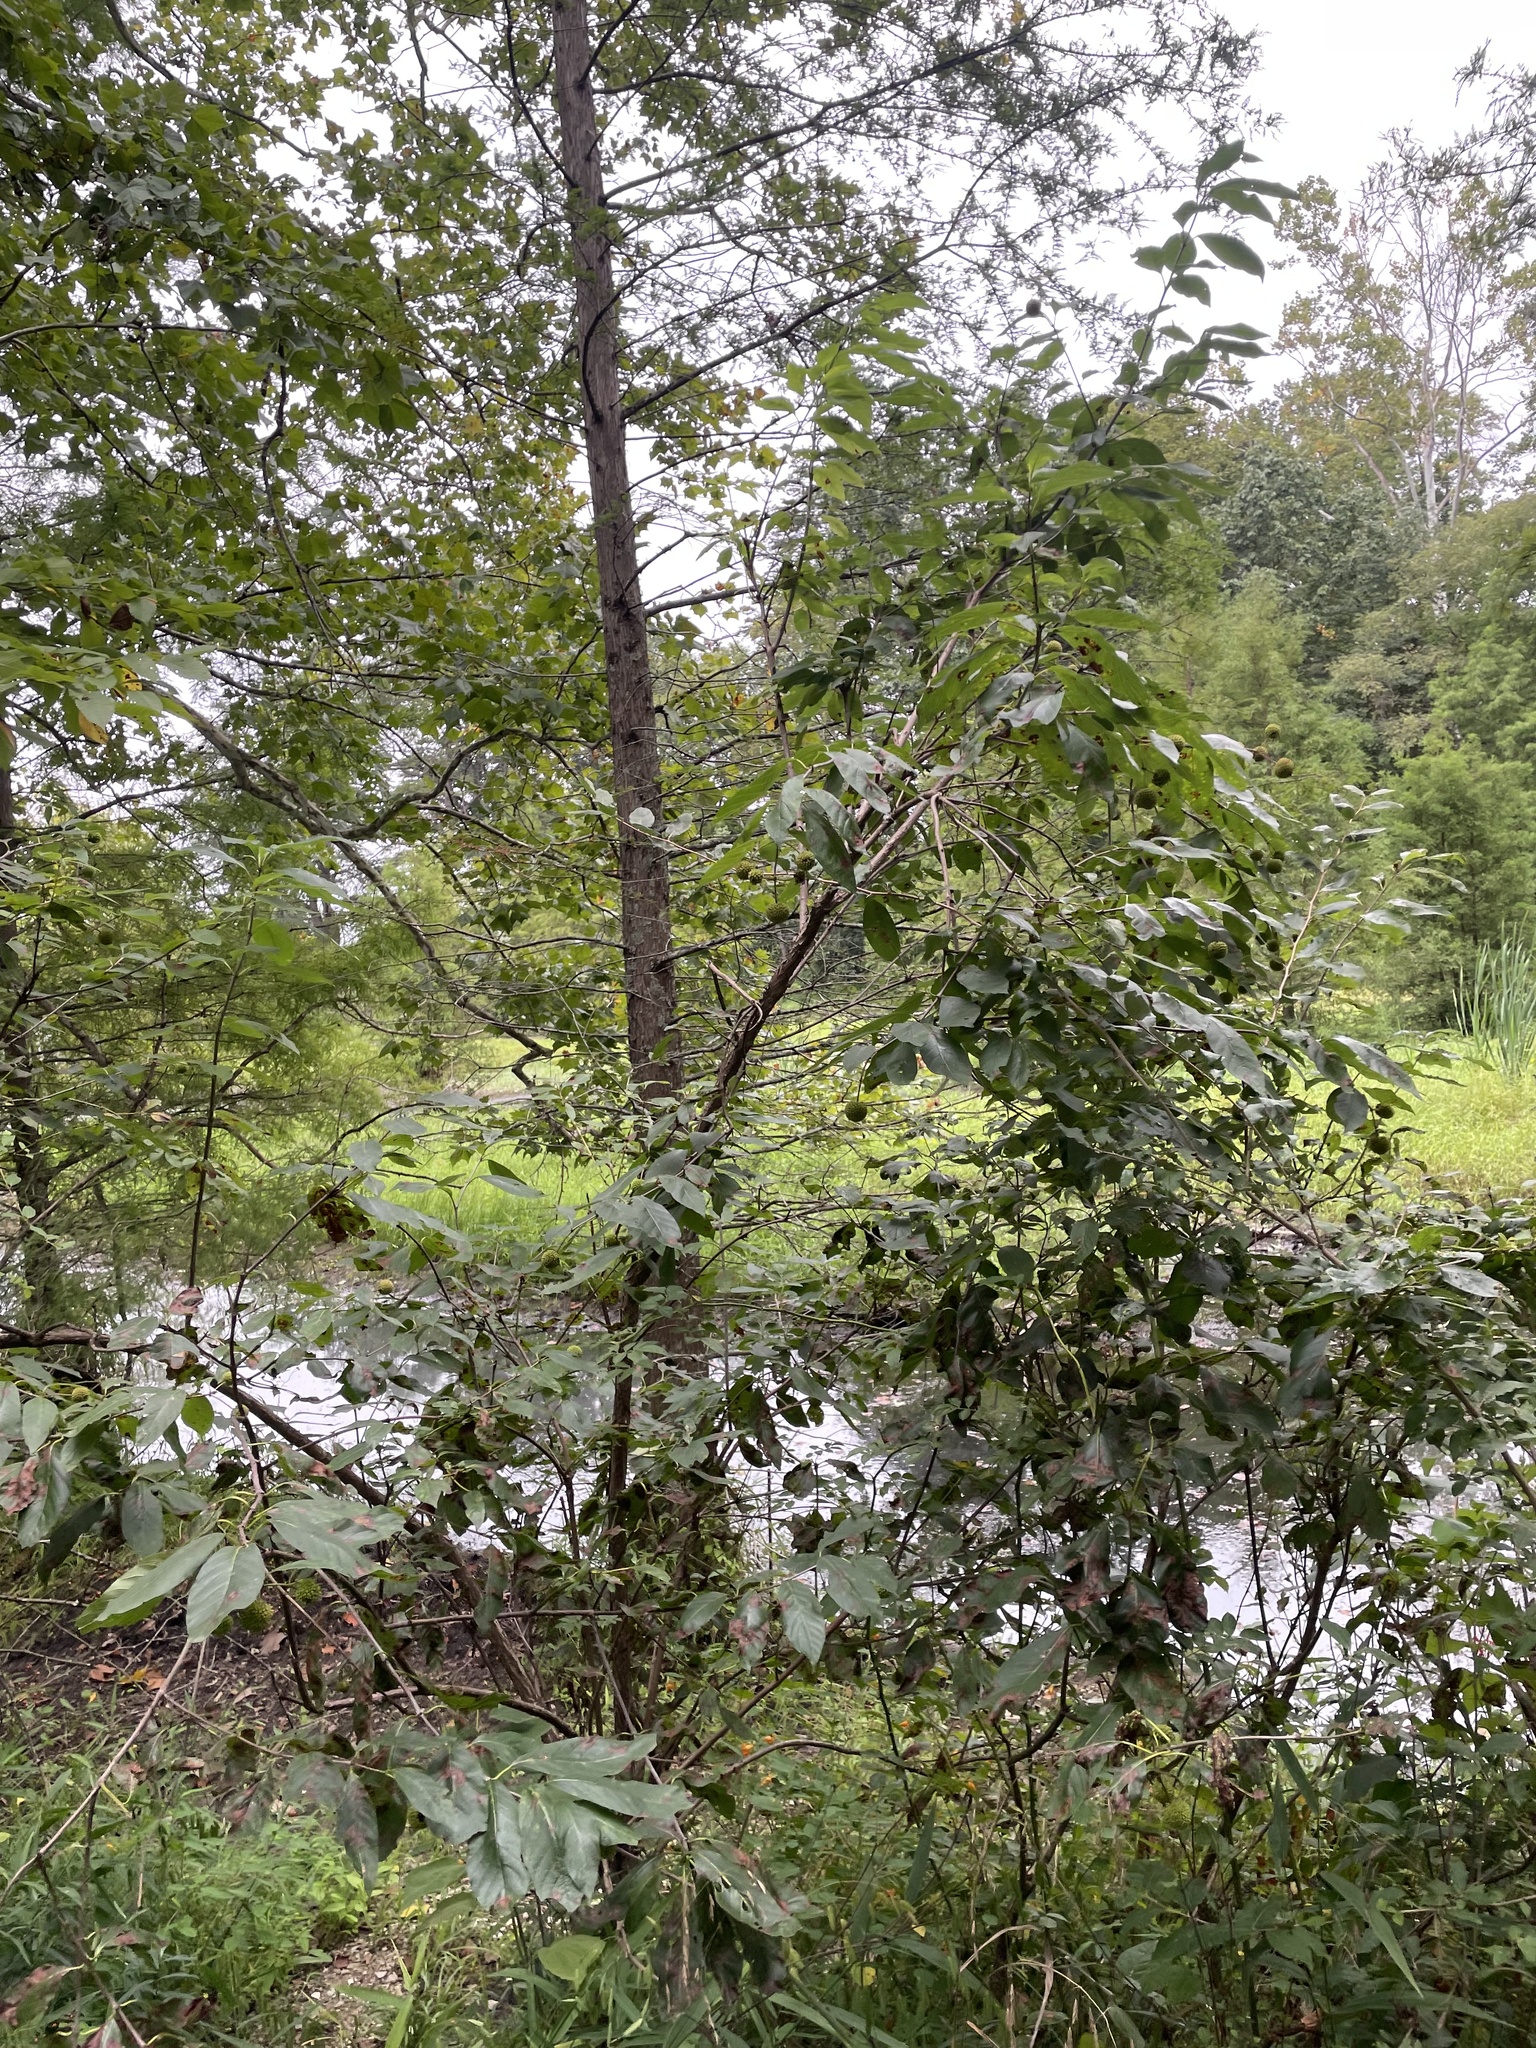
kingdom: Plantae
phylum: Tracheophyta
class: Magnoliopsida
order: Gentianales
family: Rubiaceae
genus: Cephalanthus
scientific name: Cephalanthus occidentalis
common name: Button-willow
